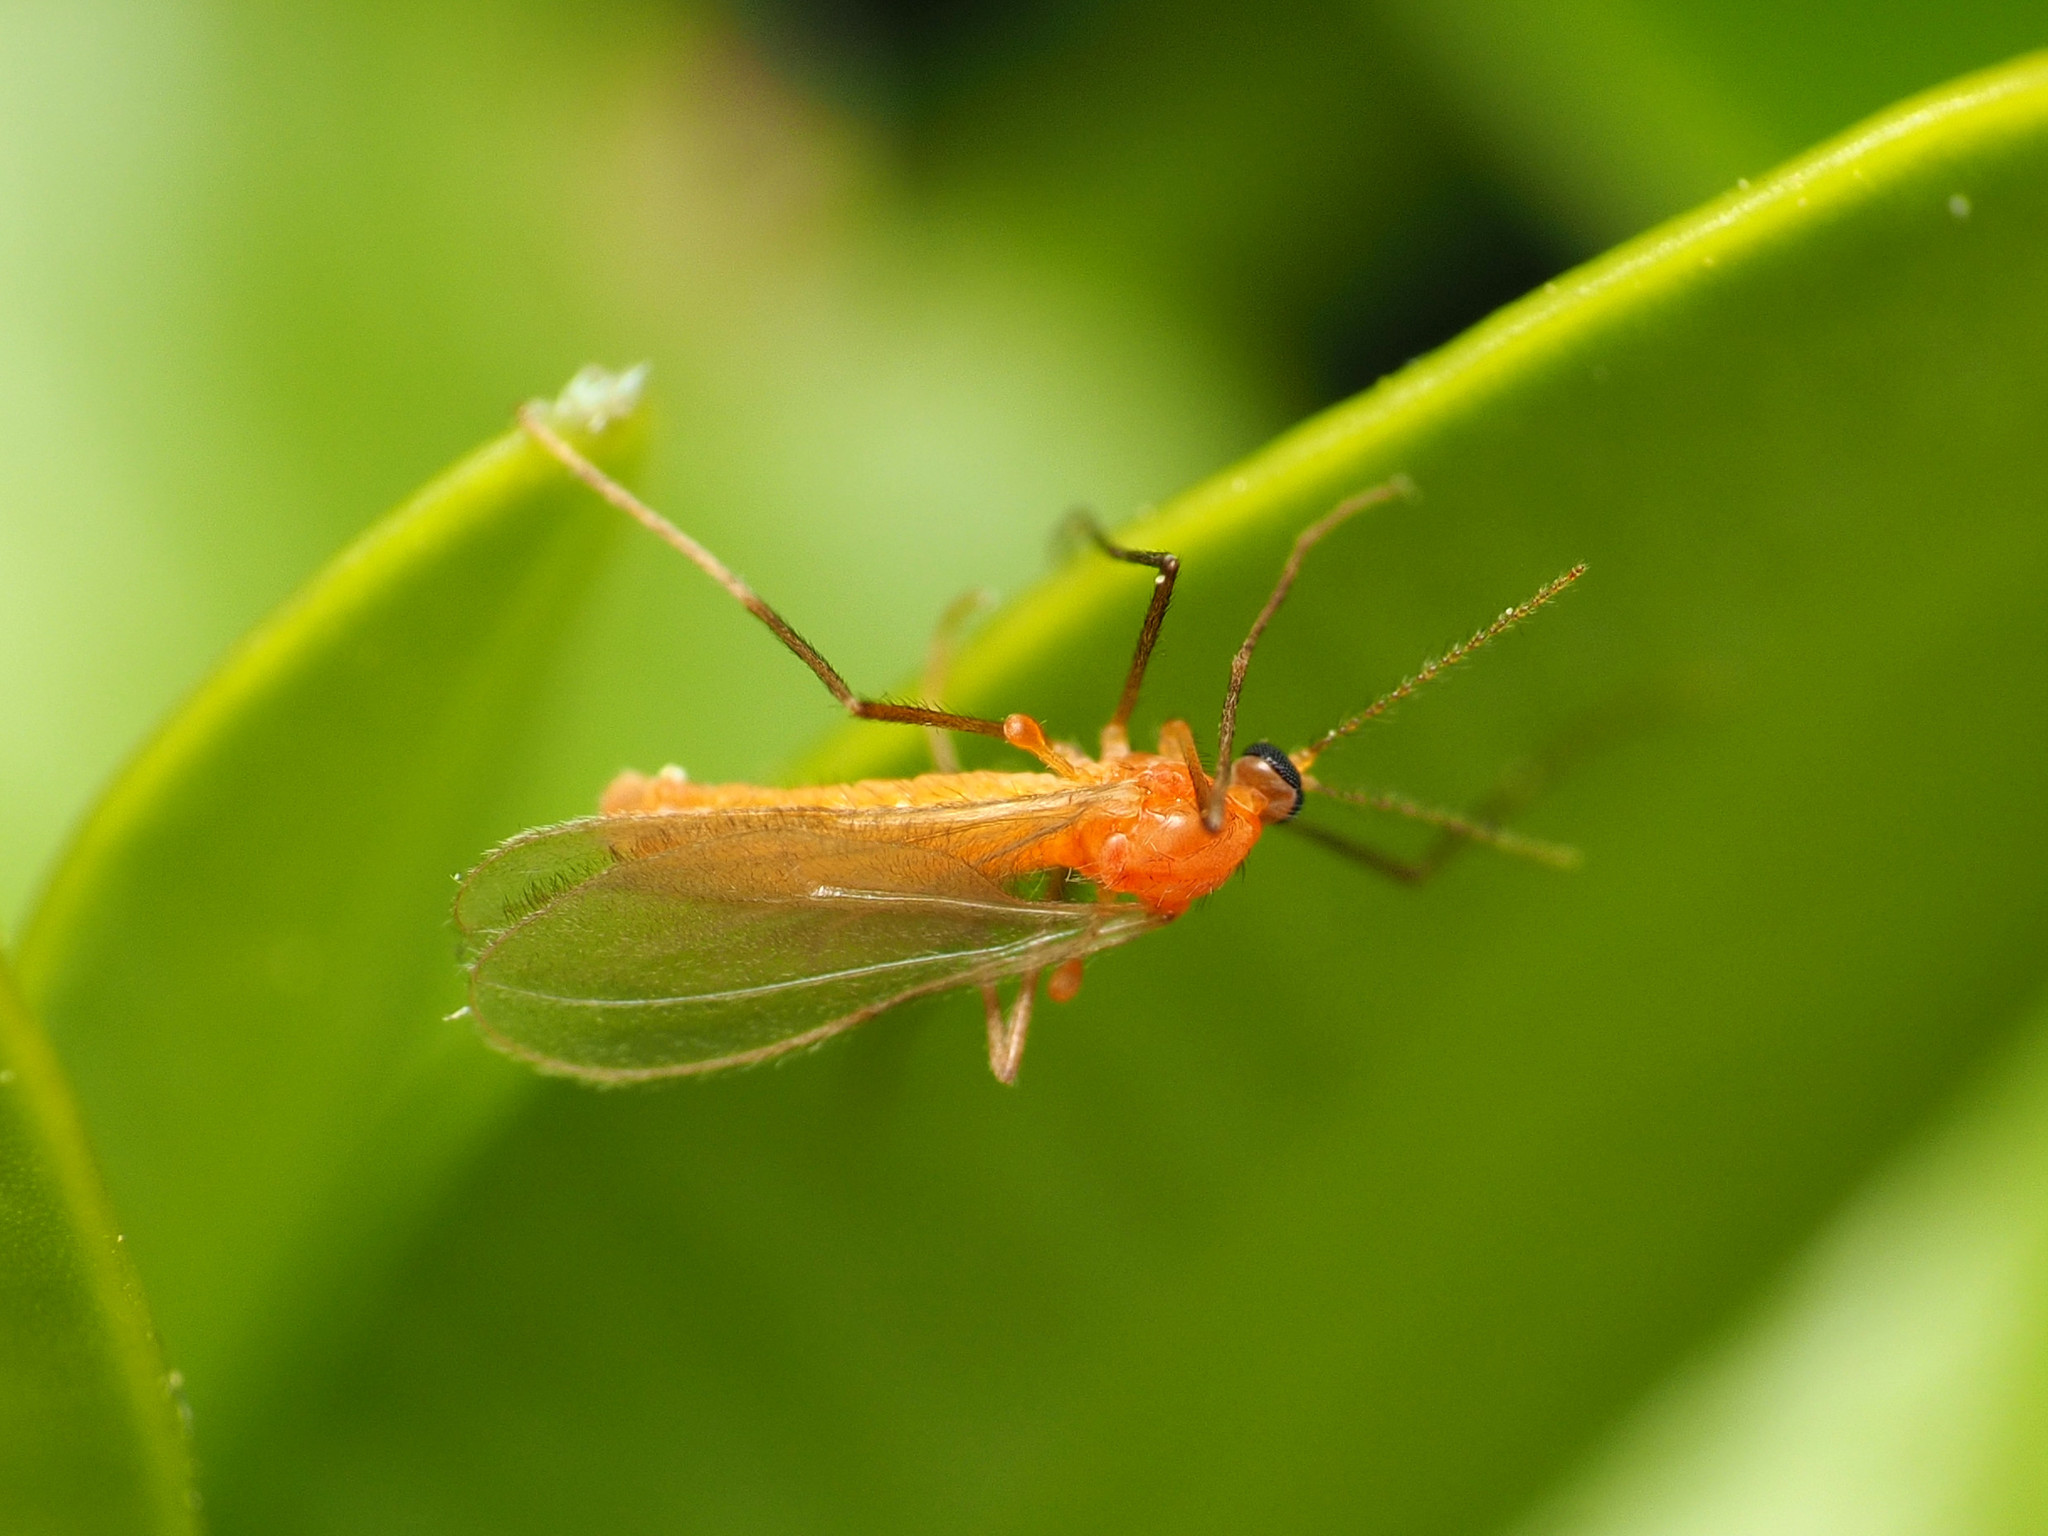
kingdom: Animalia
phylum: Arthropoda
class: Insecta
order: Diptera
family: Cecidomyiidae
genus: Monarthropalpus
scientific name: Monarthropalpus flavus
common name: Boxwood leafminer
